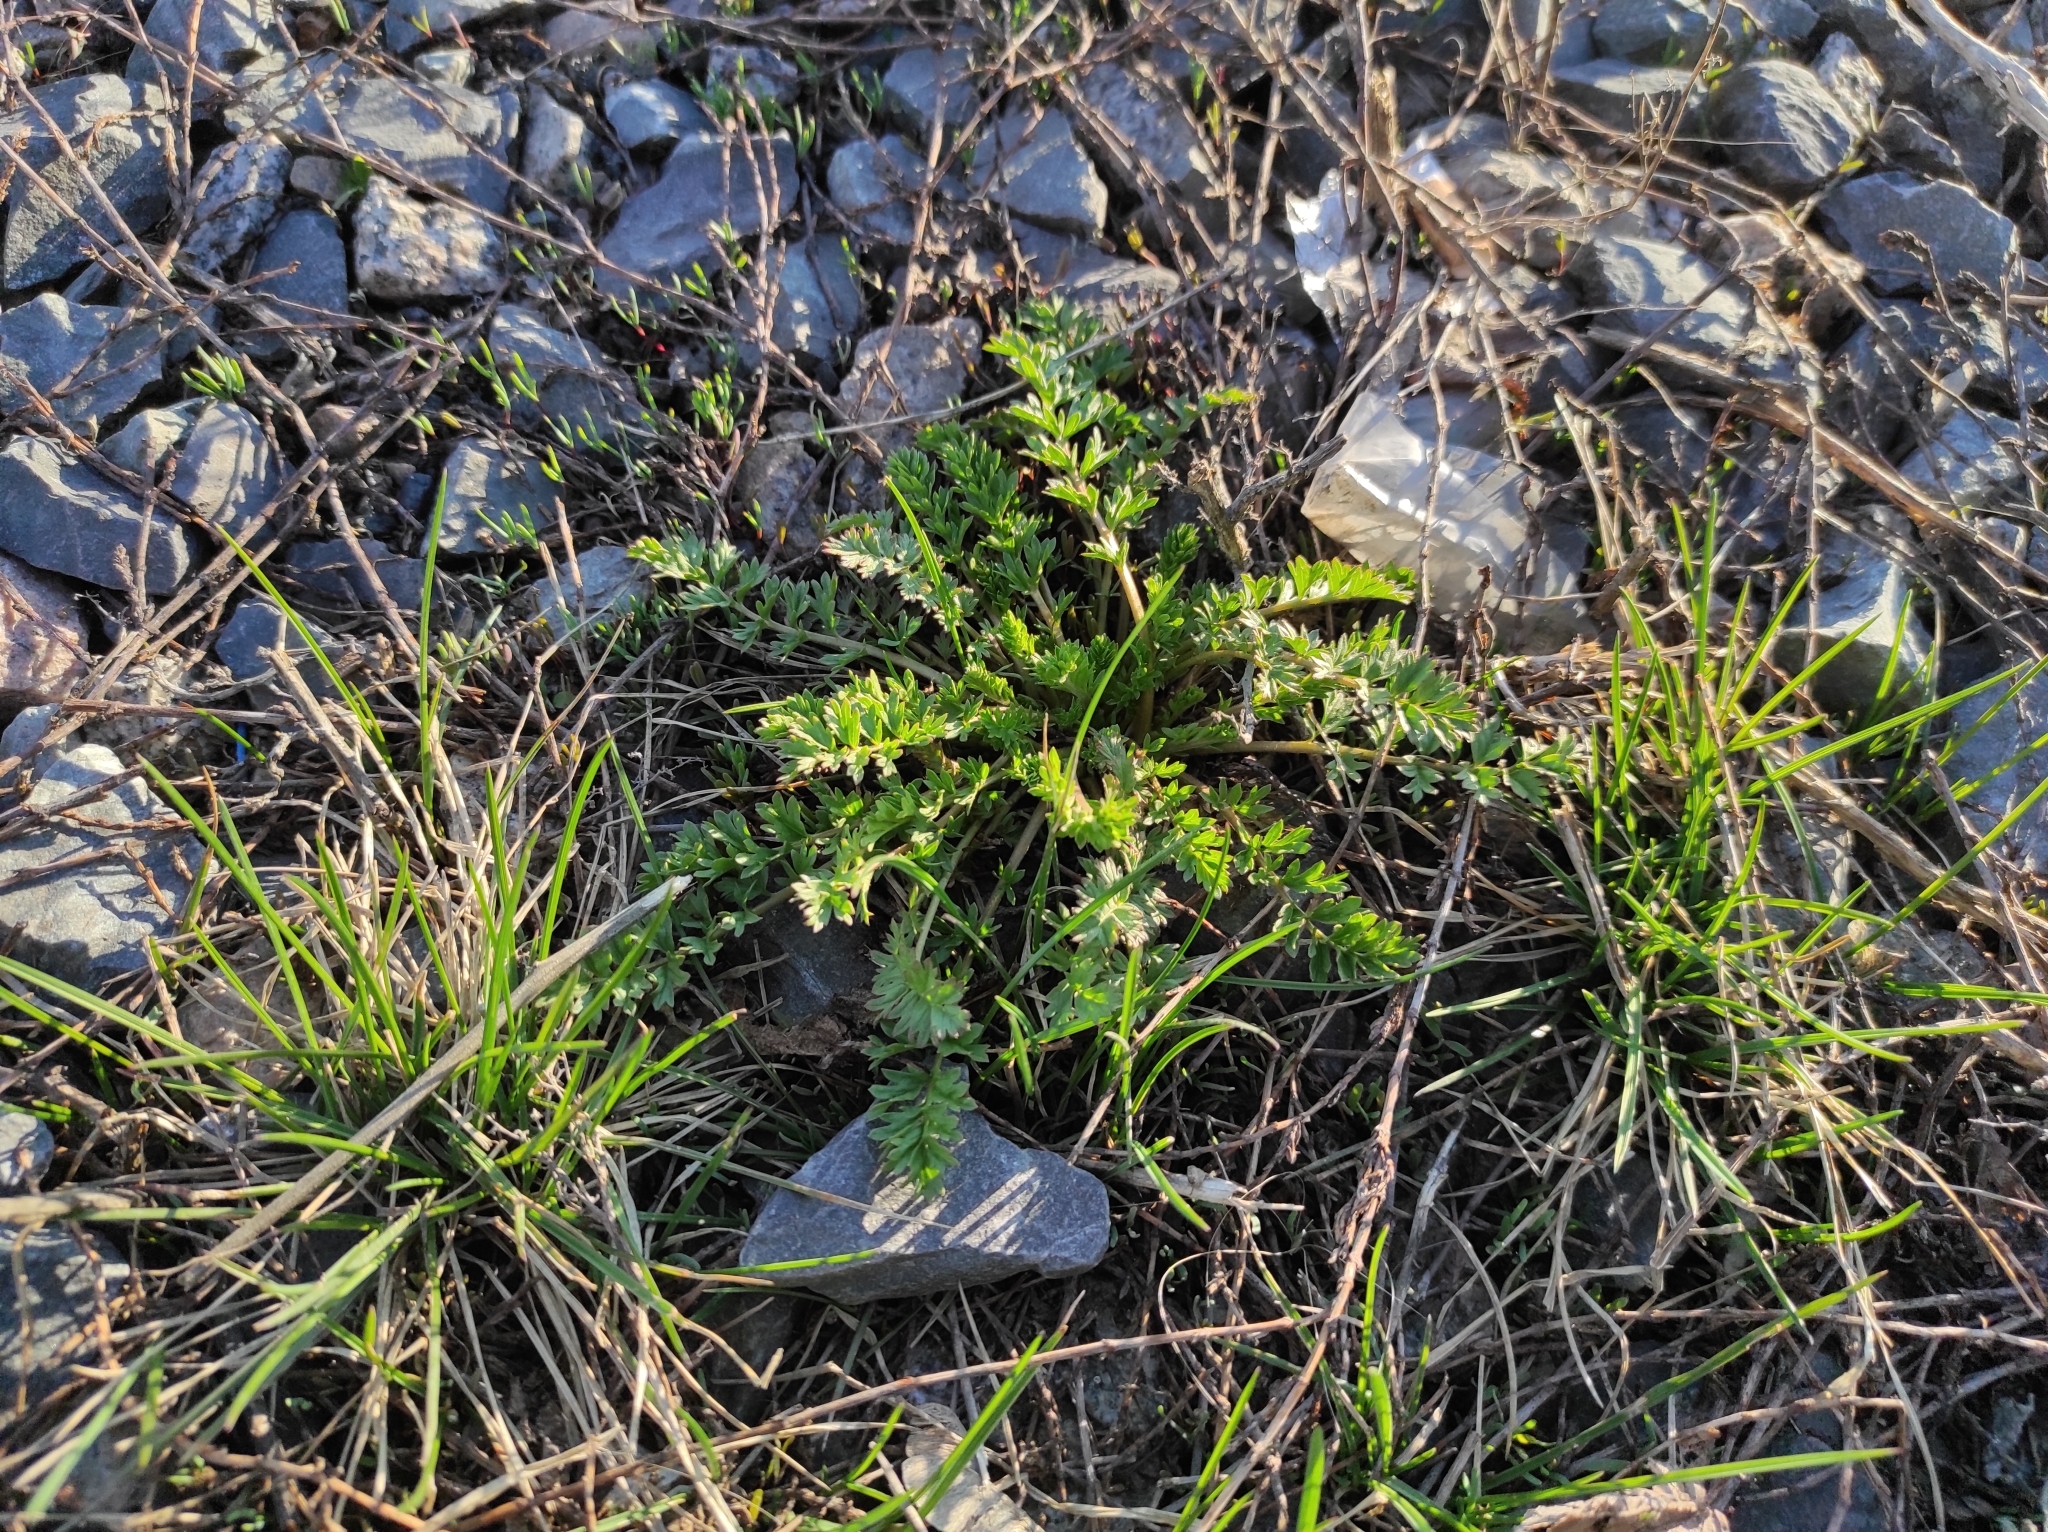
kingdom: Plantae
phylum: Tracheophyta
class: Magnoliopsida
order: Rosales
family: Rosaceae
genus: Potentilla
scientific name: Potentilla supina
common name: Prostrate cinquefoil
